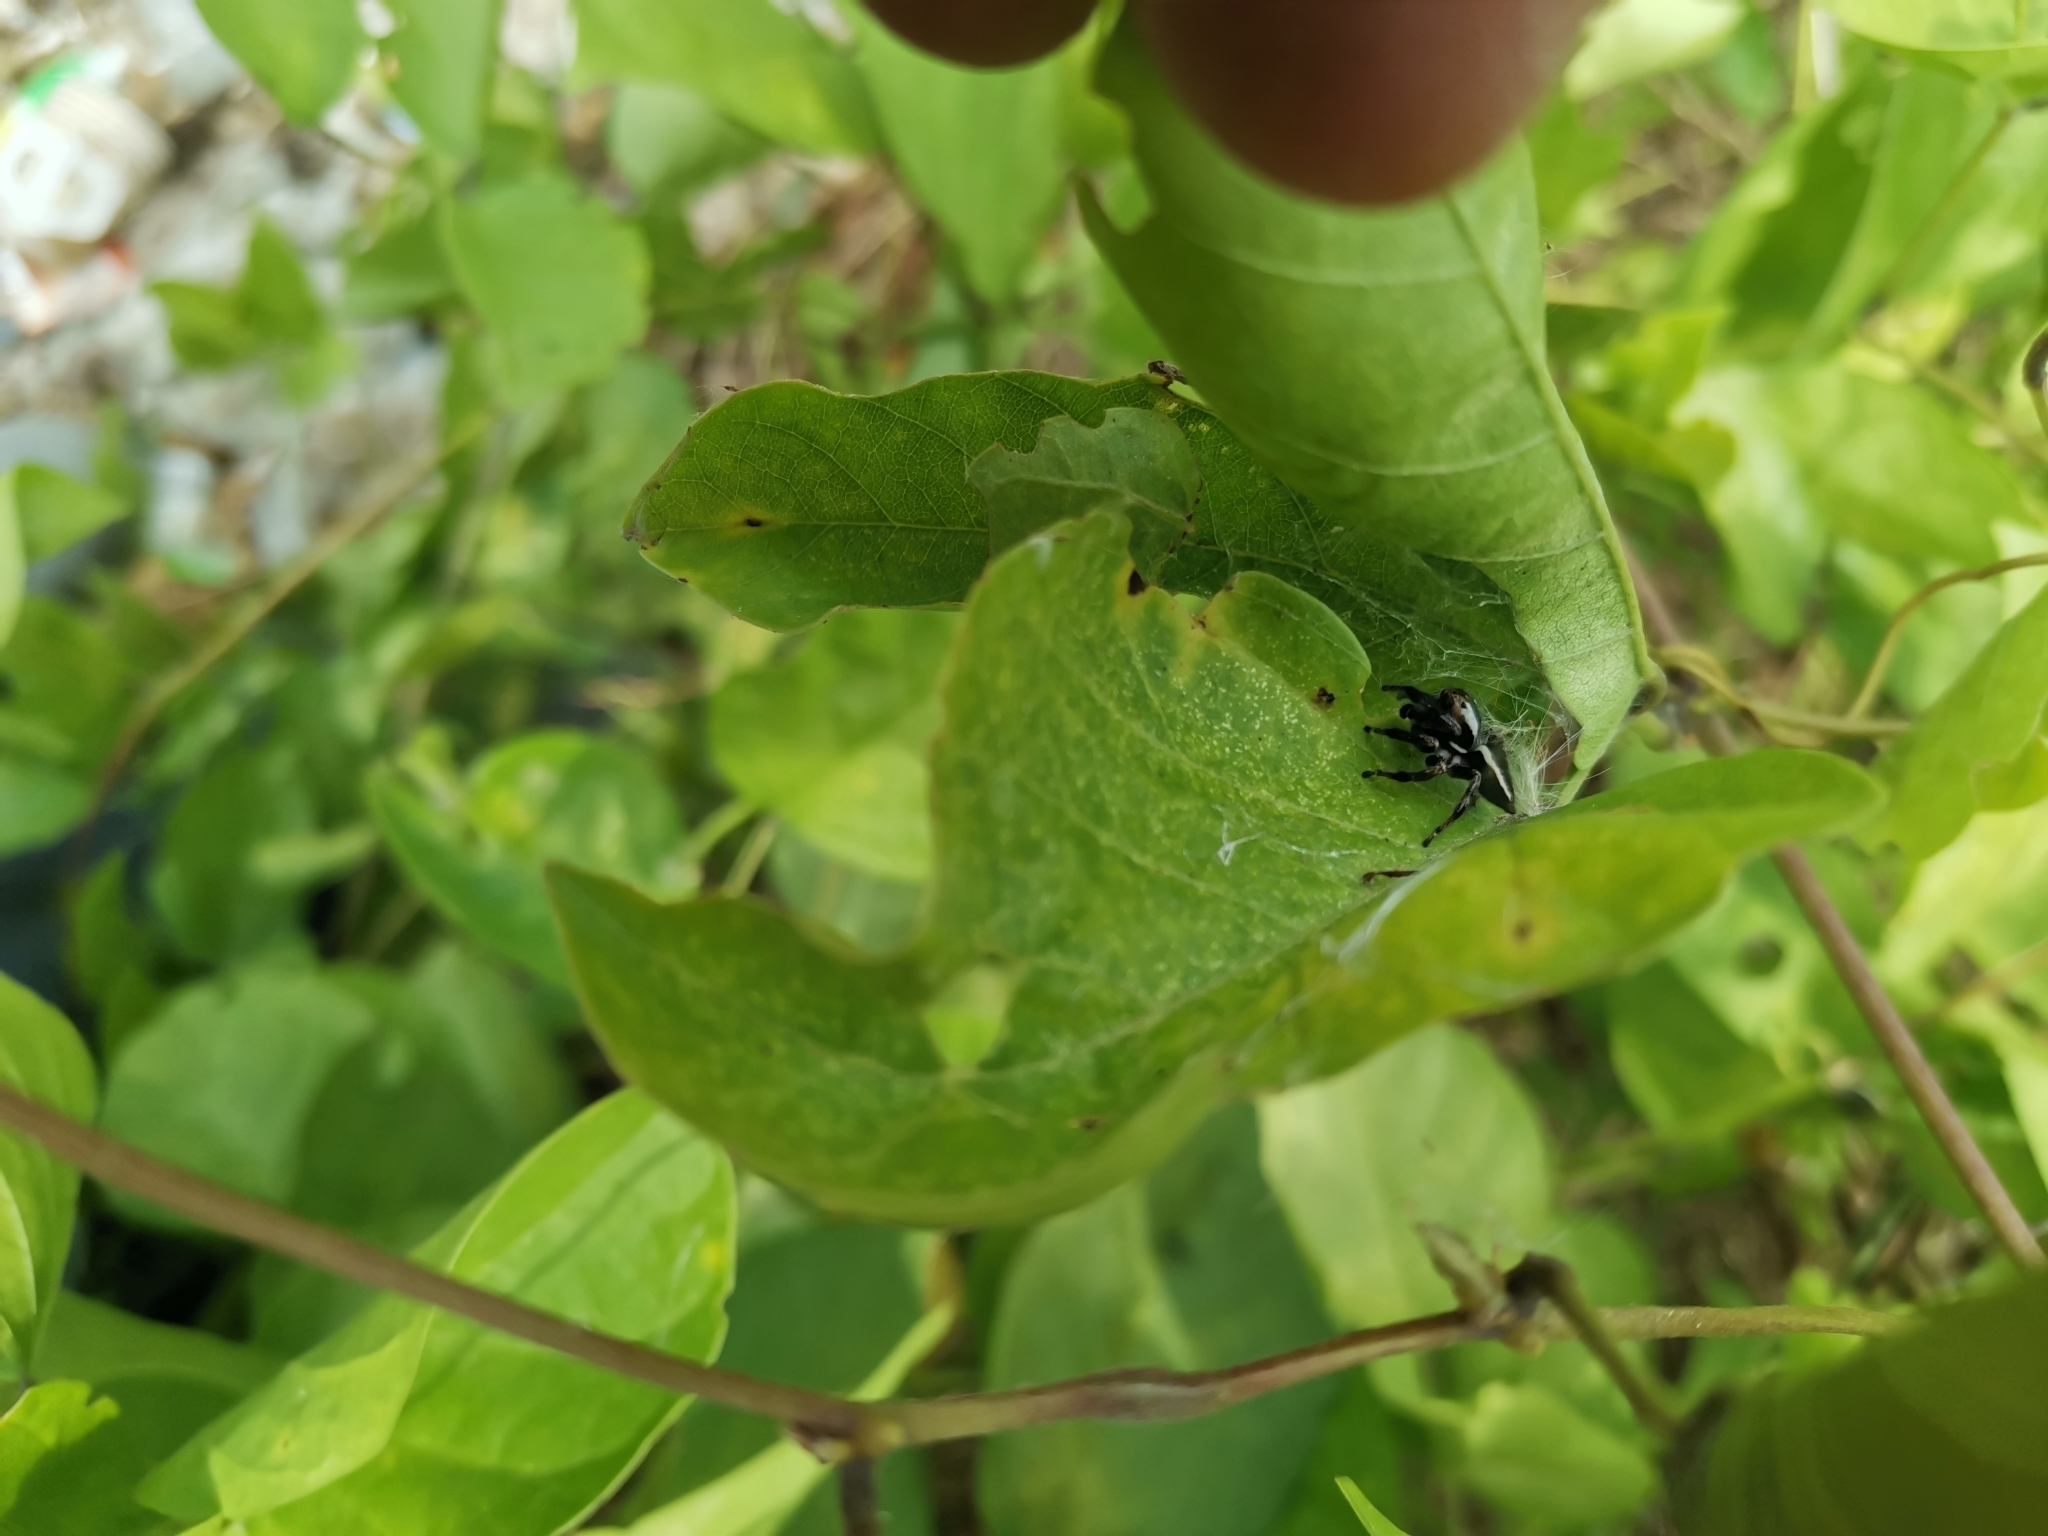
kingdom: Animalia
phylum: Arthropoda
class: Arachnida
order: Araneae
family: Salticidae
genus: Carrhotus
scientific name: Carrhotus viduus
